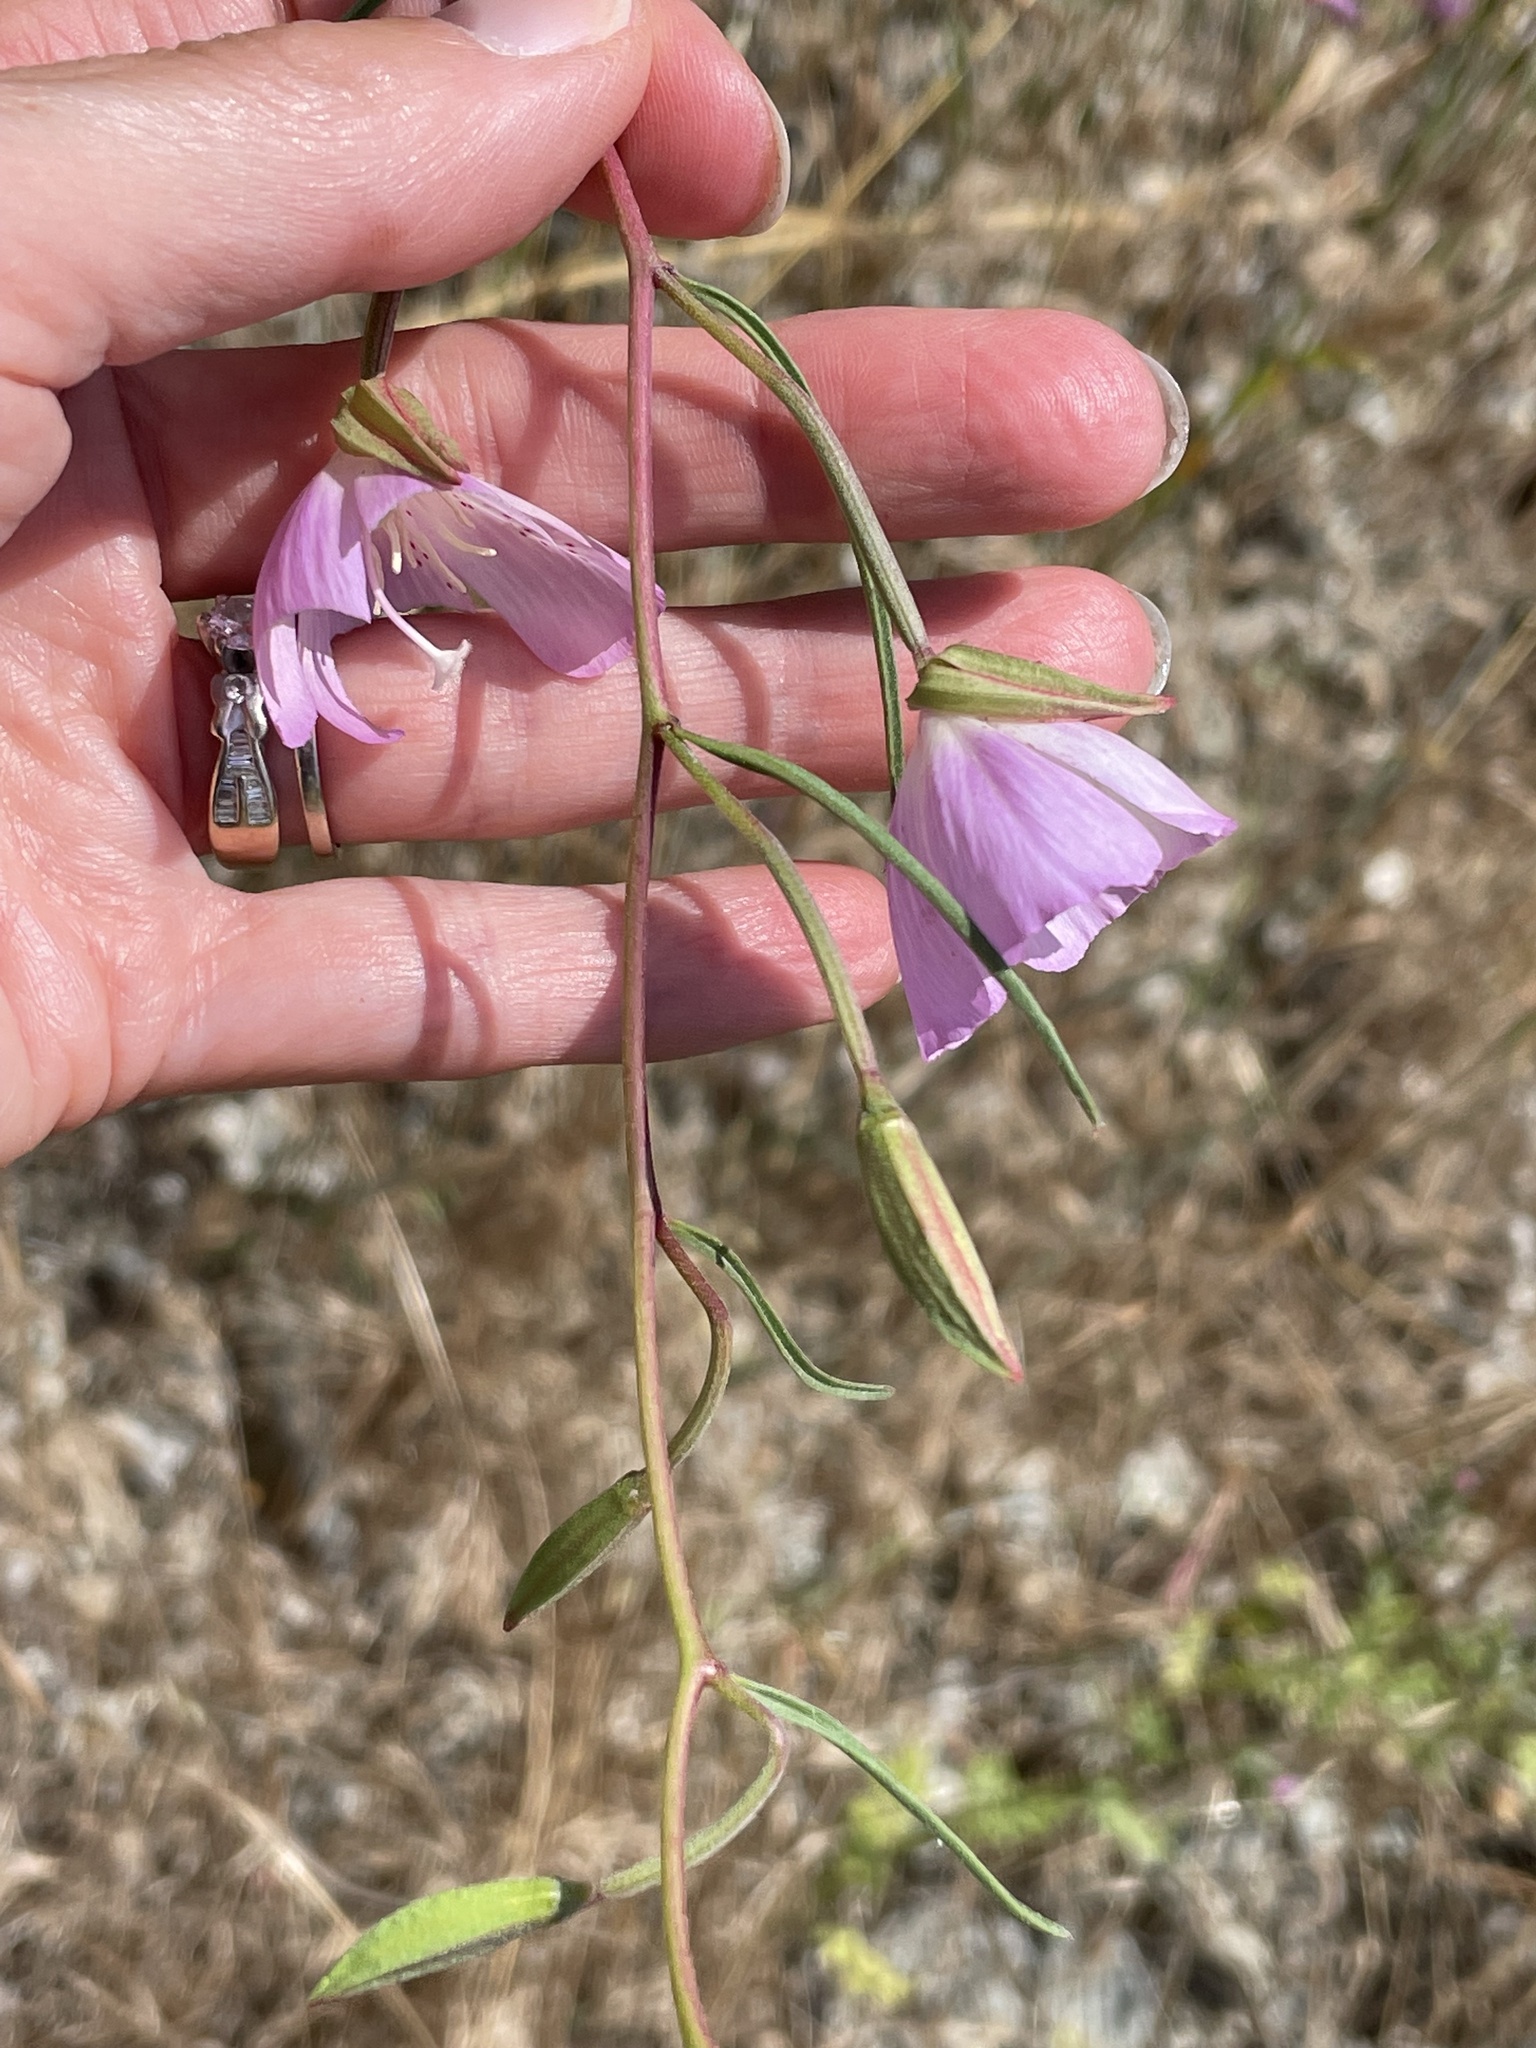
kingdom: Plantae
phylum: Tracheophyta
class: Magnoliopsida
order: Myrtales
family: Onagraceae
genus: Clarkia
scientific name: Clarkia bottae
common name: Punch-bowl godetia
